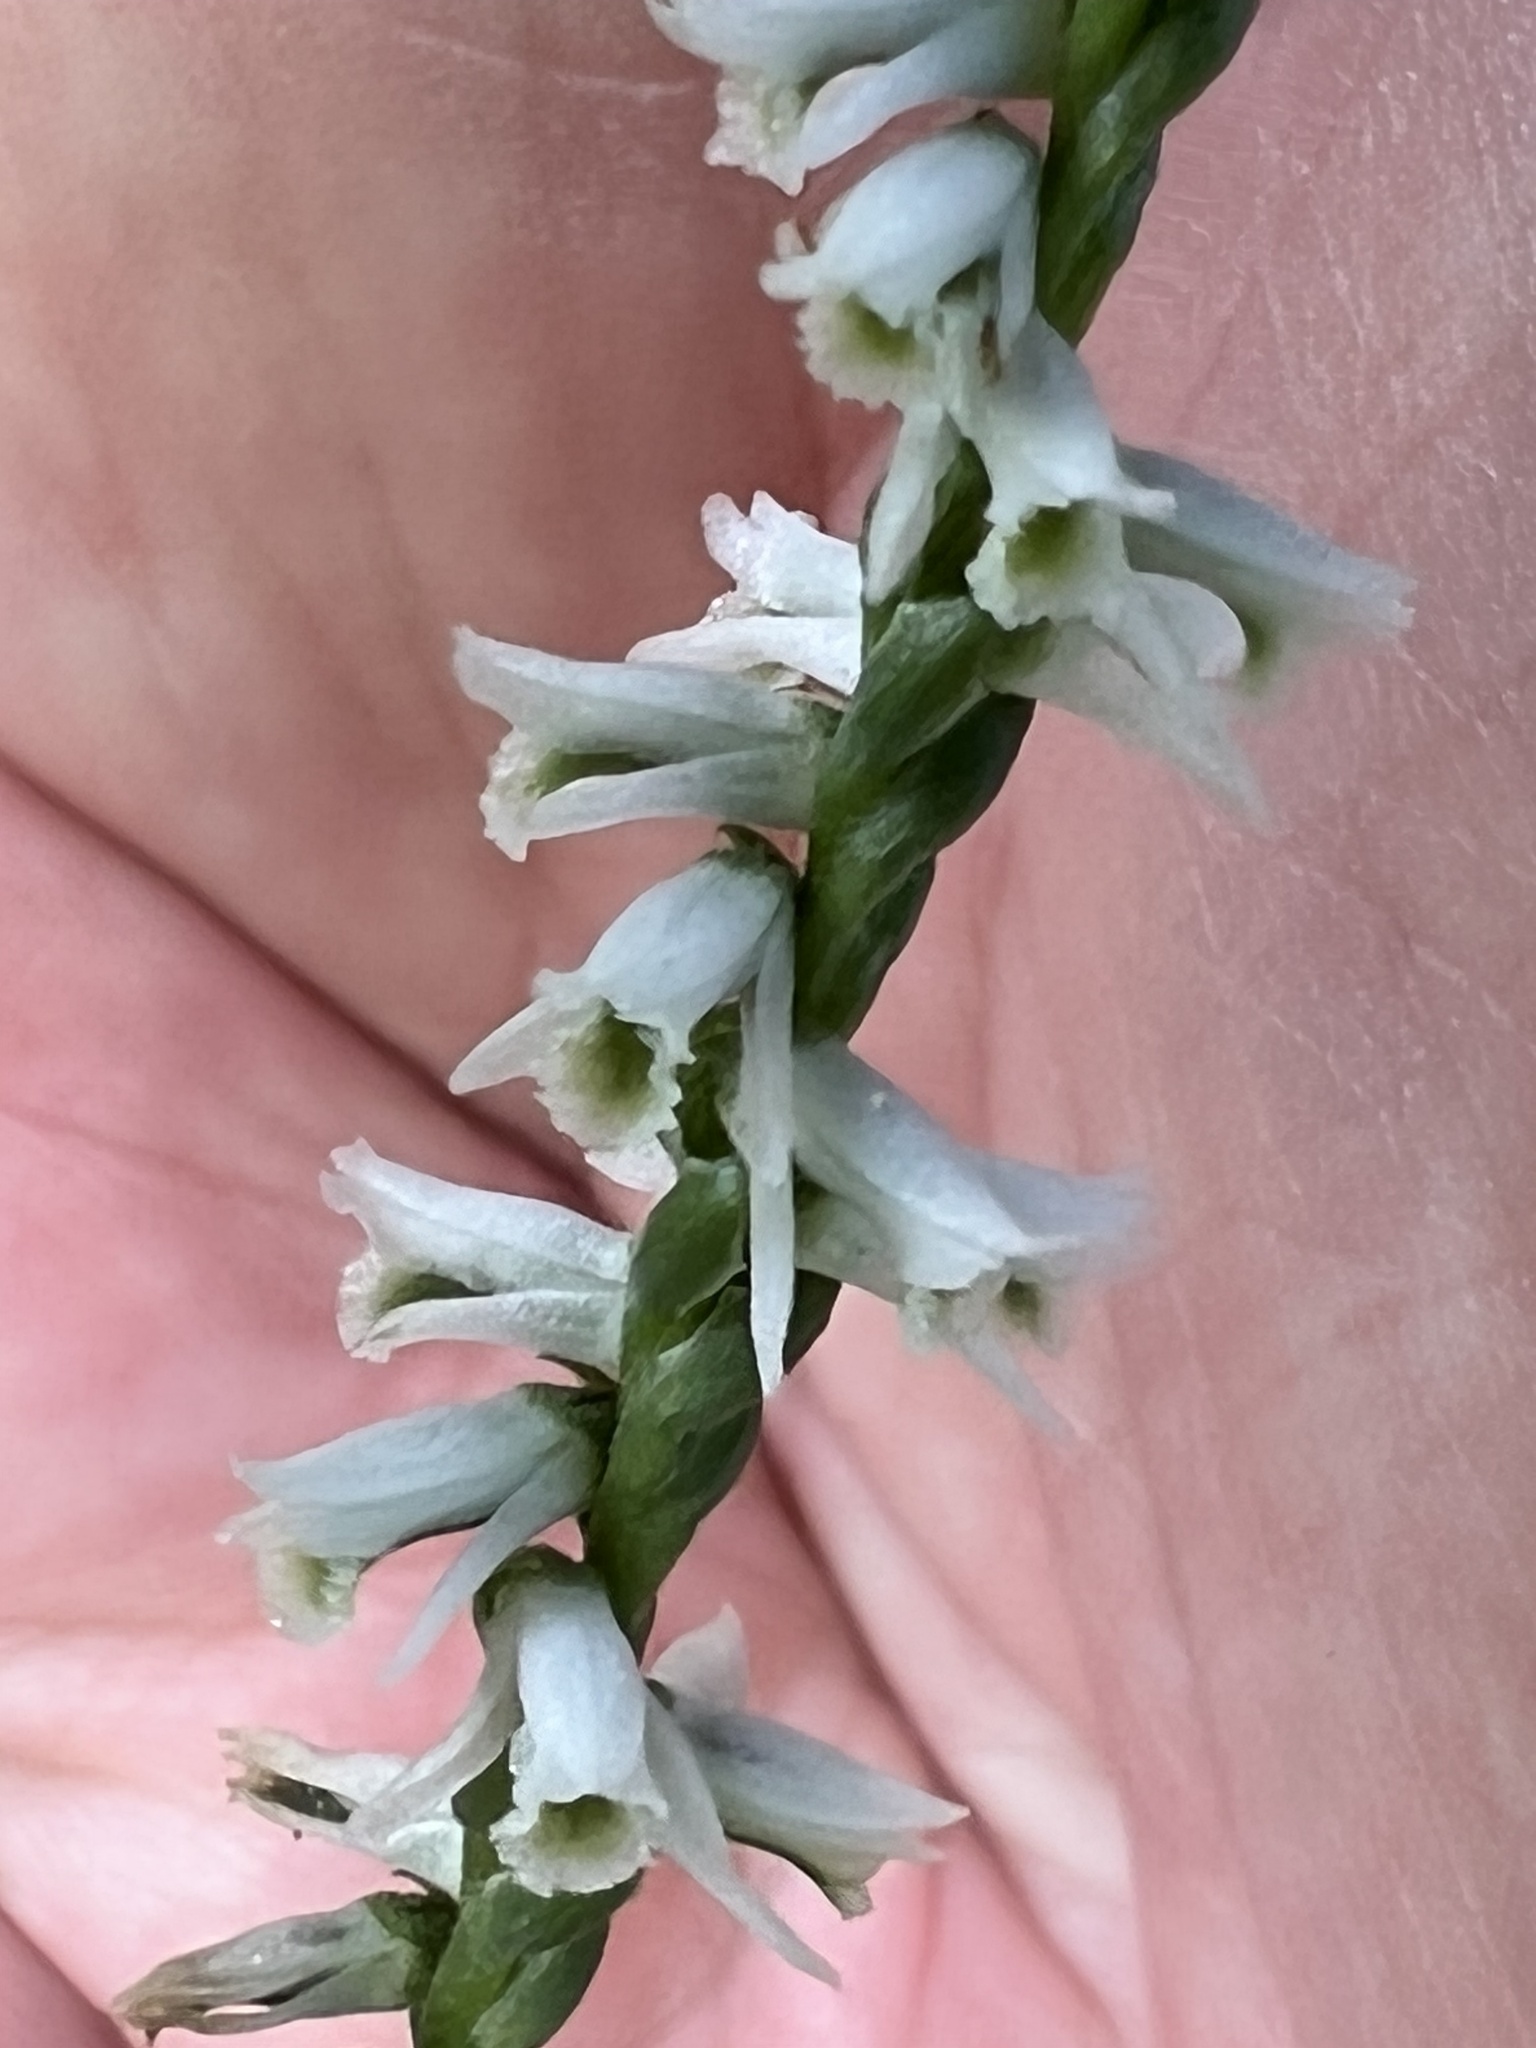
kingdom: Plantae
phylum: Tracheophyta
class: Liliopsida
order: Asparagales
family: Orchidaceae
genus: Spiranthes
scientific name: Spiranthes lacera
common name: Northern slender ladies'-tresses
